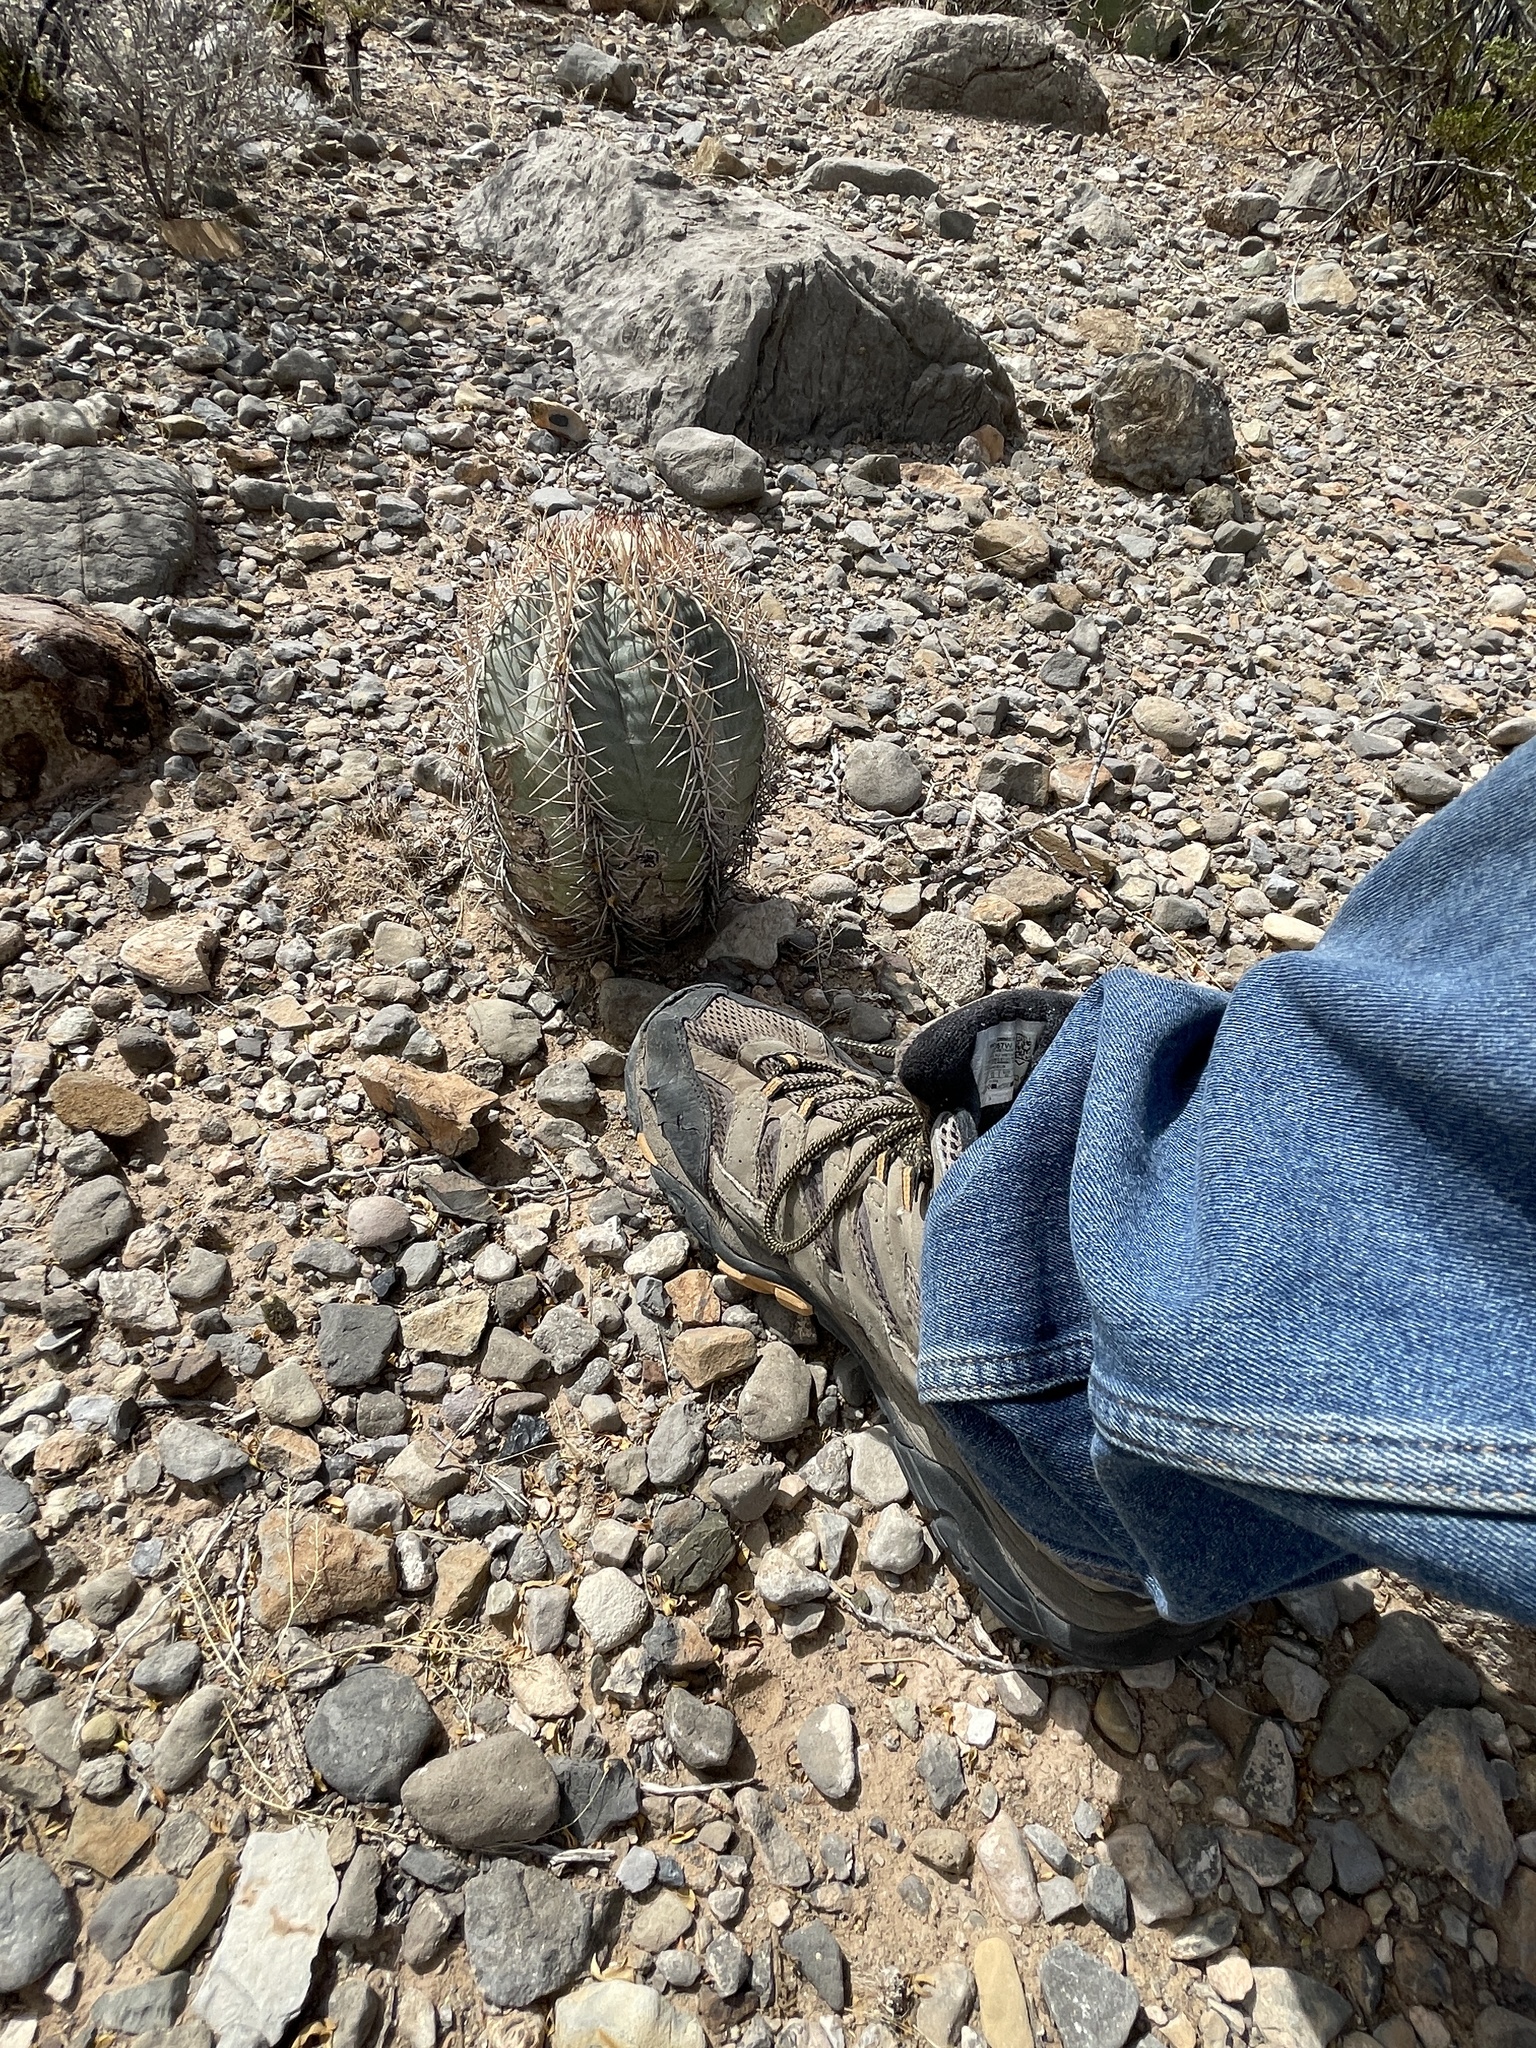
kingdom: Plantae
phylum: Tracheophyta
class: Magnoliopsida
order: Caryophyllales
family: Cactaceae
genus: Echinocactus
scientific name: Echinocactus horizonthalonius
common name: Devilshead
